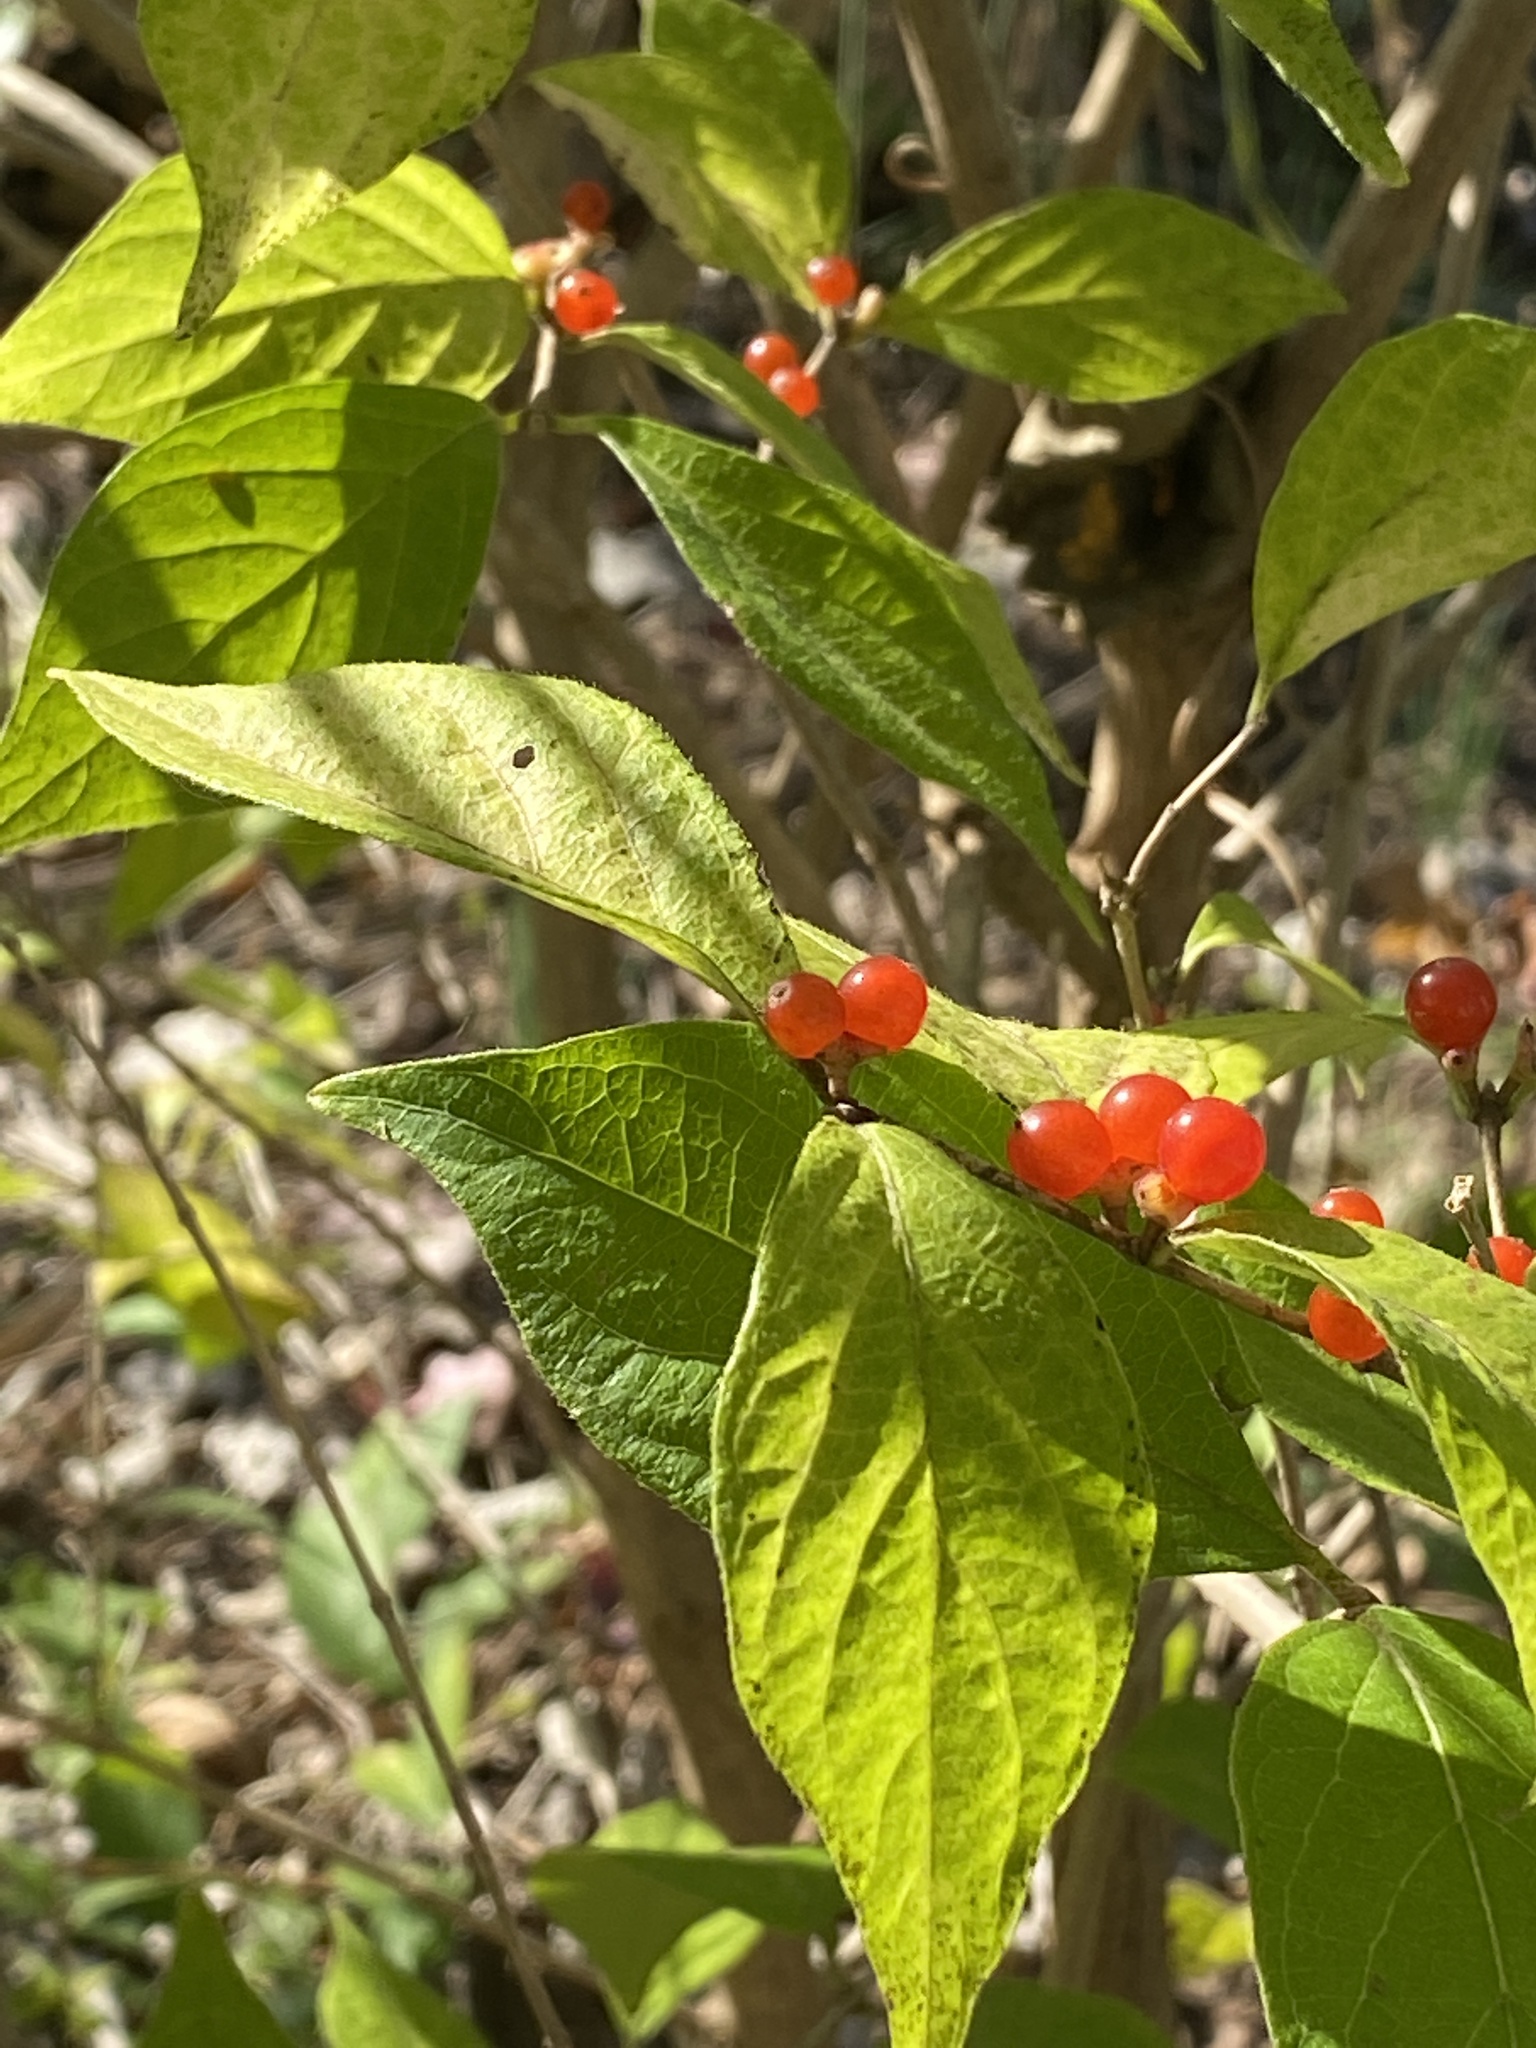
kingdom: Plantae
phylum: Tracheophyta
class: Magnoliopsida
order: Dipsacales
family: Caprifoliaceae
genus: Lonicera
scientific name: Lonicera maackii
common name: Amur honeysuckle
